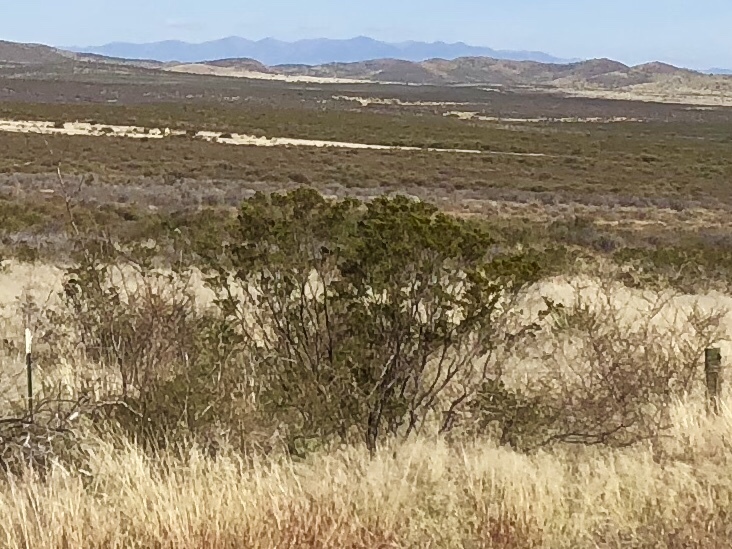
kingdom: Plantae
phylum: Tracheophyta
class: Magnoliopsida
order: Zygophyllales
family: Zygophyllaceae
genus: Larrea
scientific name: Larrea tridentata
